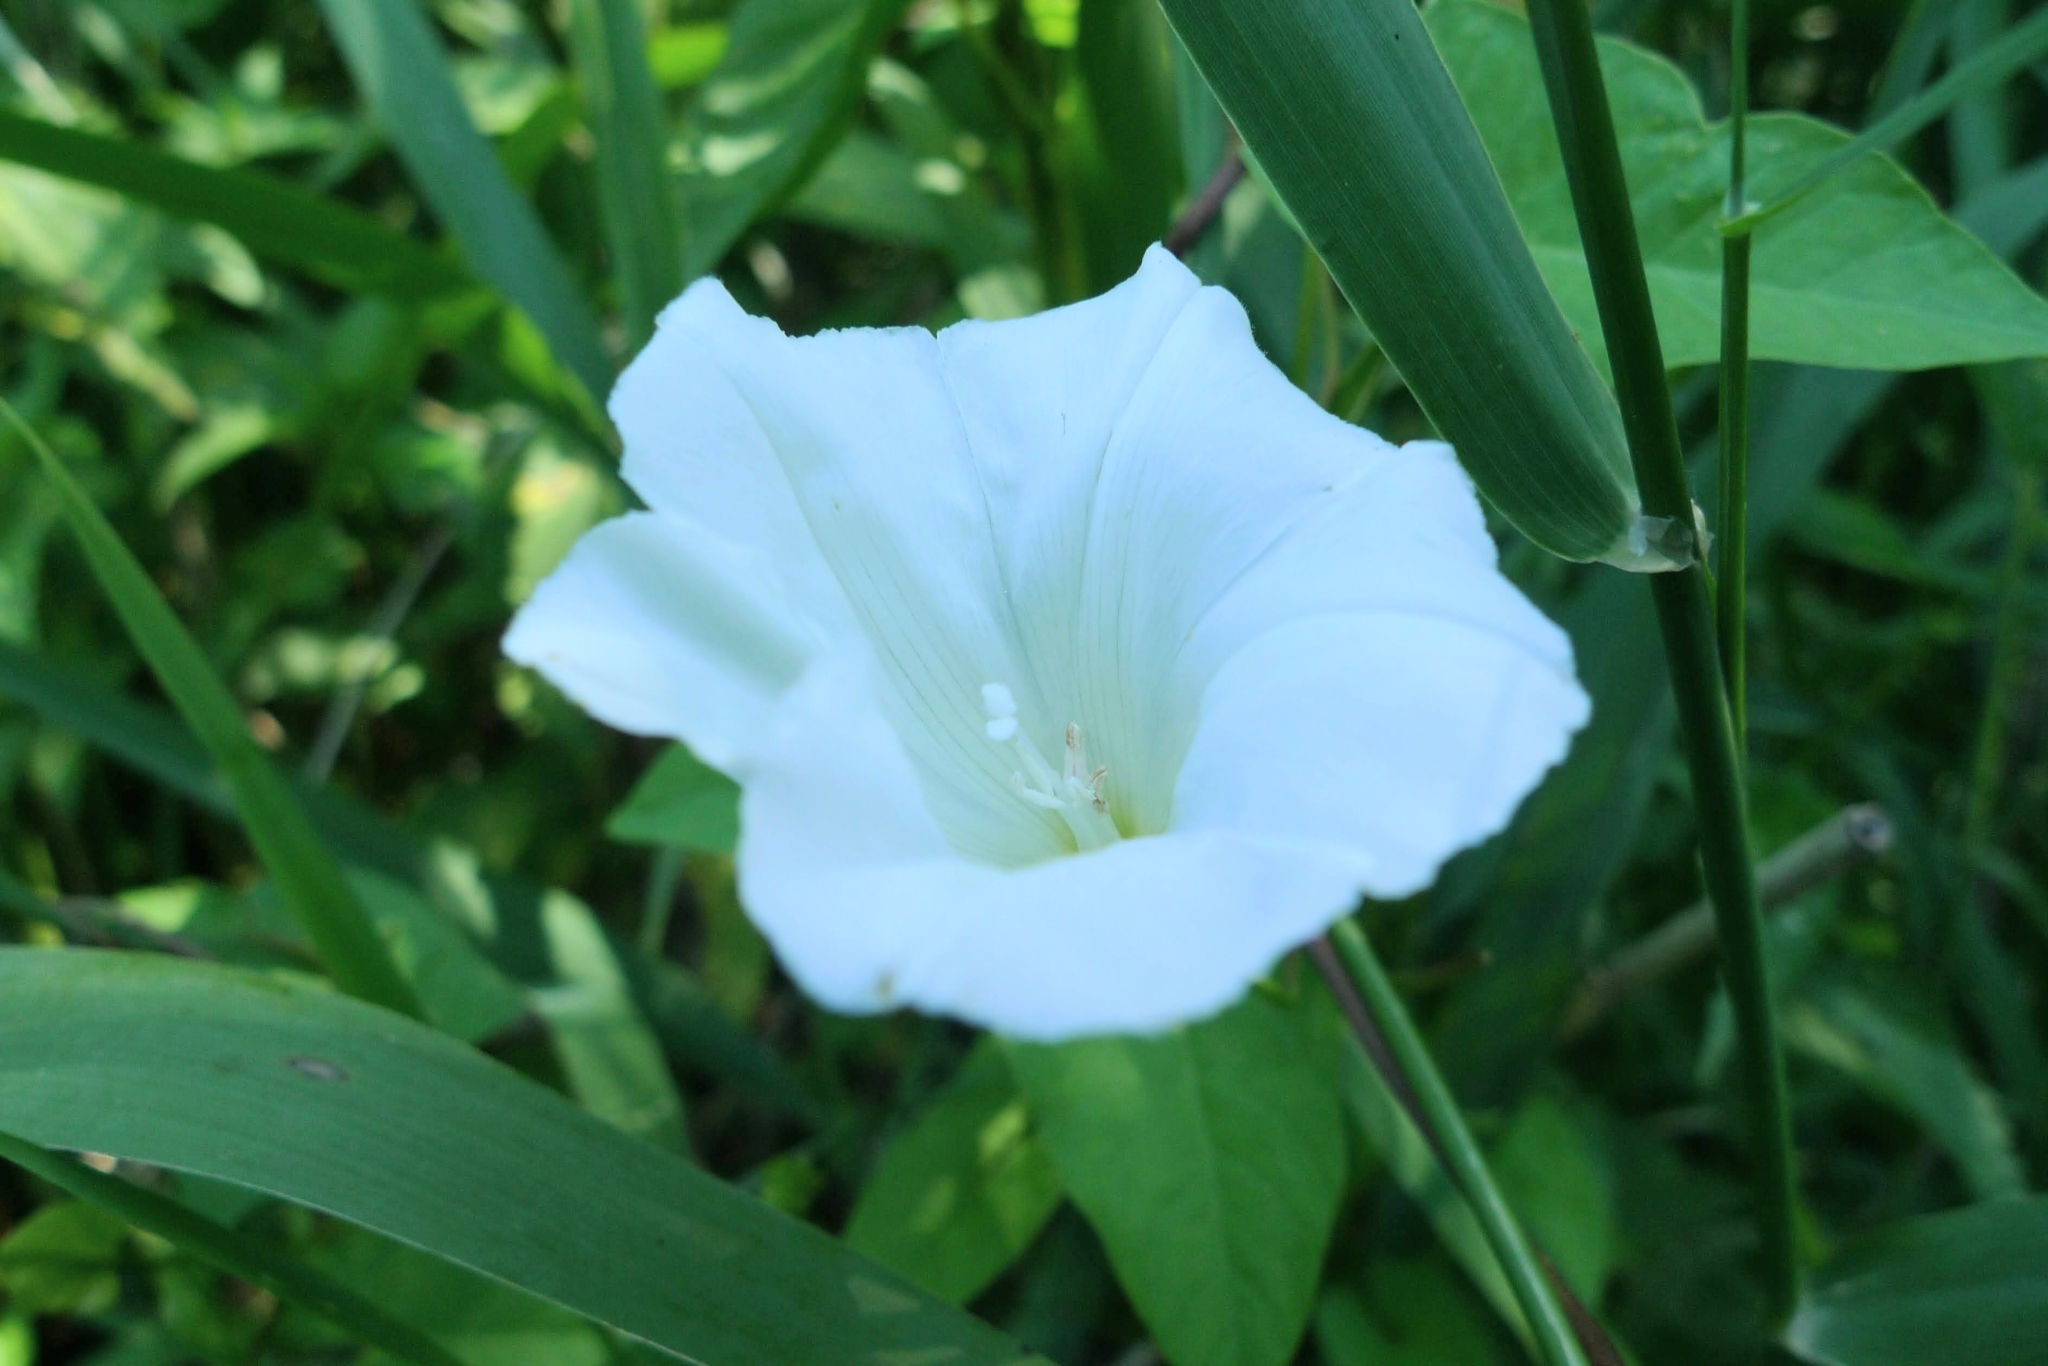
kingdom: Plantae
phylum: Tracheophyta
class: Magnoliopsida
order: Solanales
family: Convolvulaceae
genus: Calystegia
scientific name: Calystegia sepium
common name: Hedge bindweed
